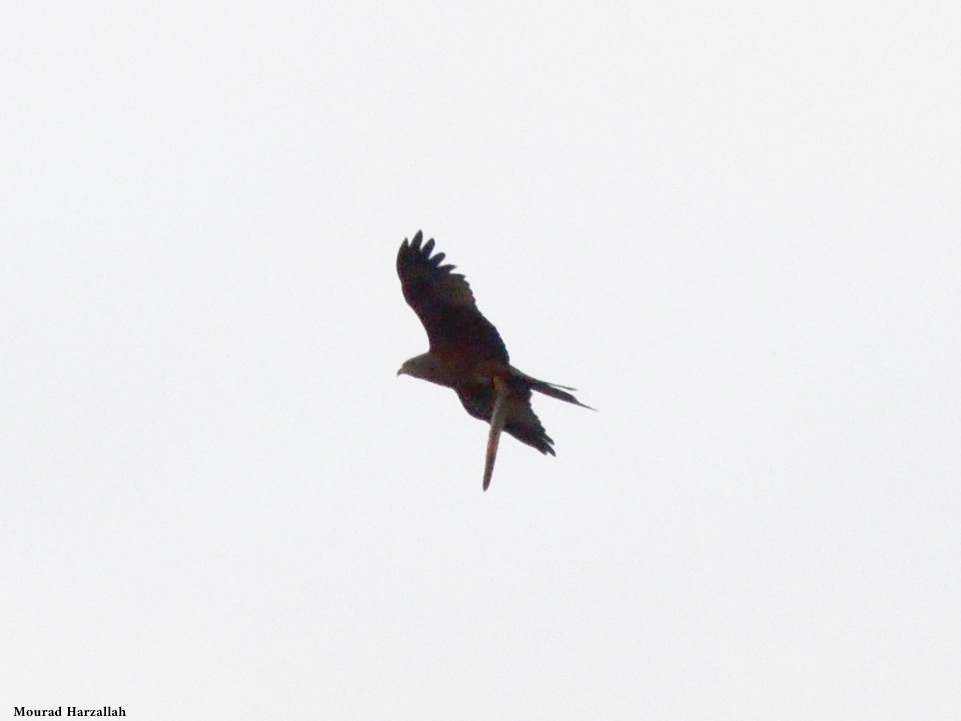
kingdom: Animalia
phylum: Chordata
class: Aves
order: Accipitriformes
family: Accipitridae
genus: Milvus
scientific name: Milvus migrans
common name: Black kite
